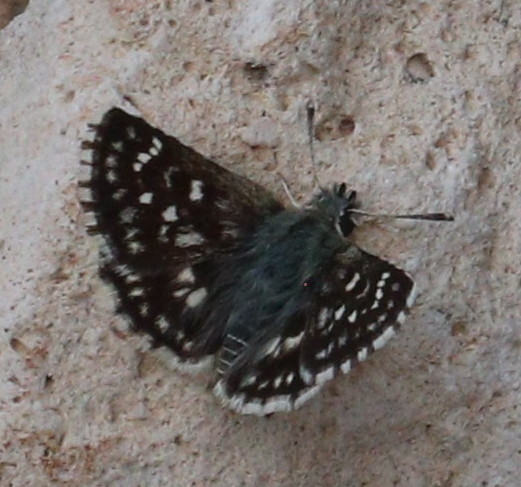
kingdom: Animalia
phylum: Arthropoda
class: Insecta
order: Lepidoptera
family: Hesperiidae
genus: Spialia
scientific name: Spialia sertorius
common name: Red underwing skipper
